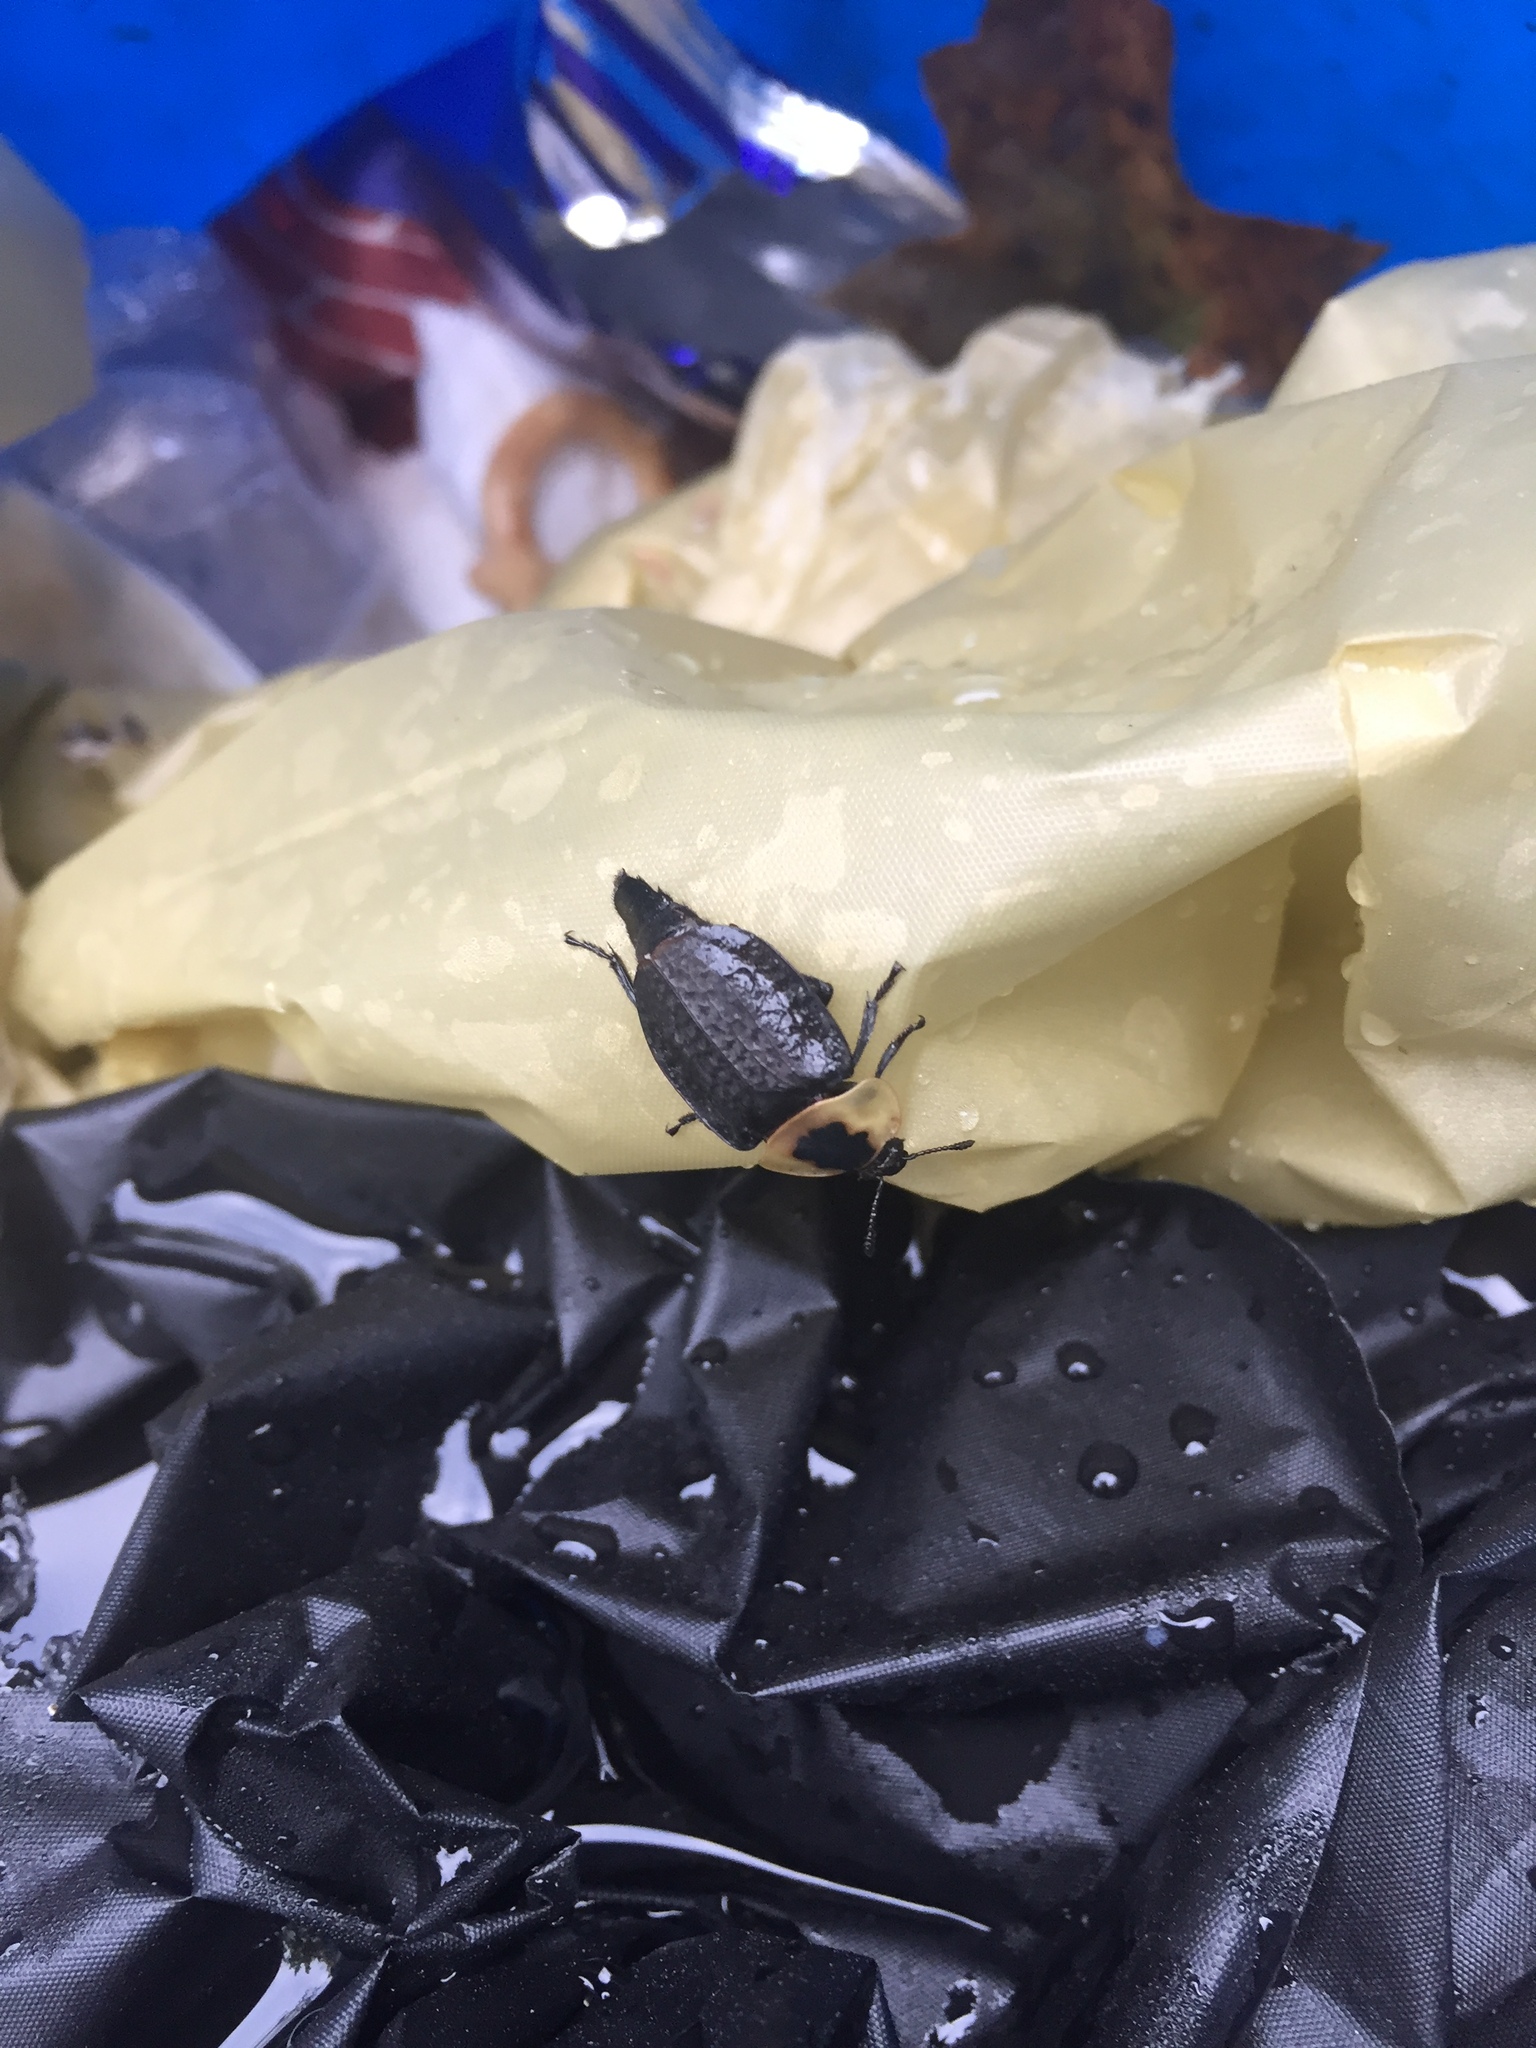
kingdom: Animalia
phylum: Arthropoda
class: Insecta
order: Coleoptera
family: Staphylinidae
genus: Necrophila
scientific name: Necrophila americana
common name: American carrion beetle
